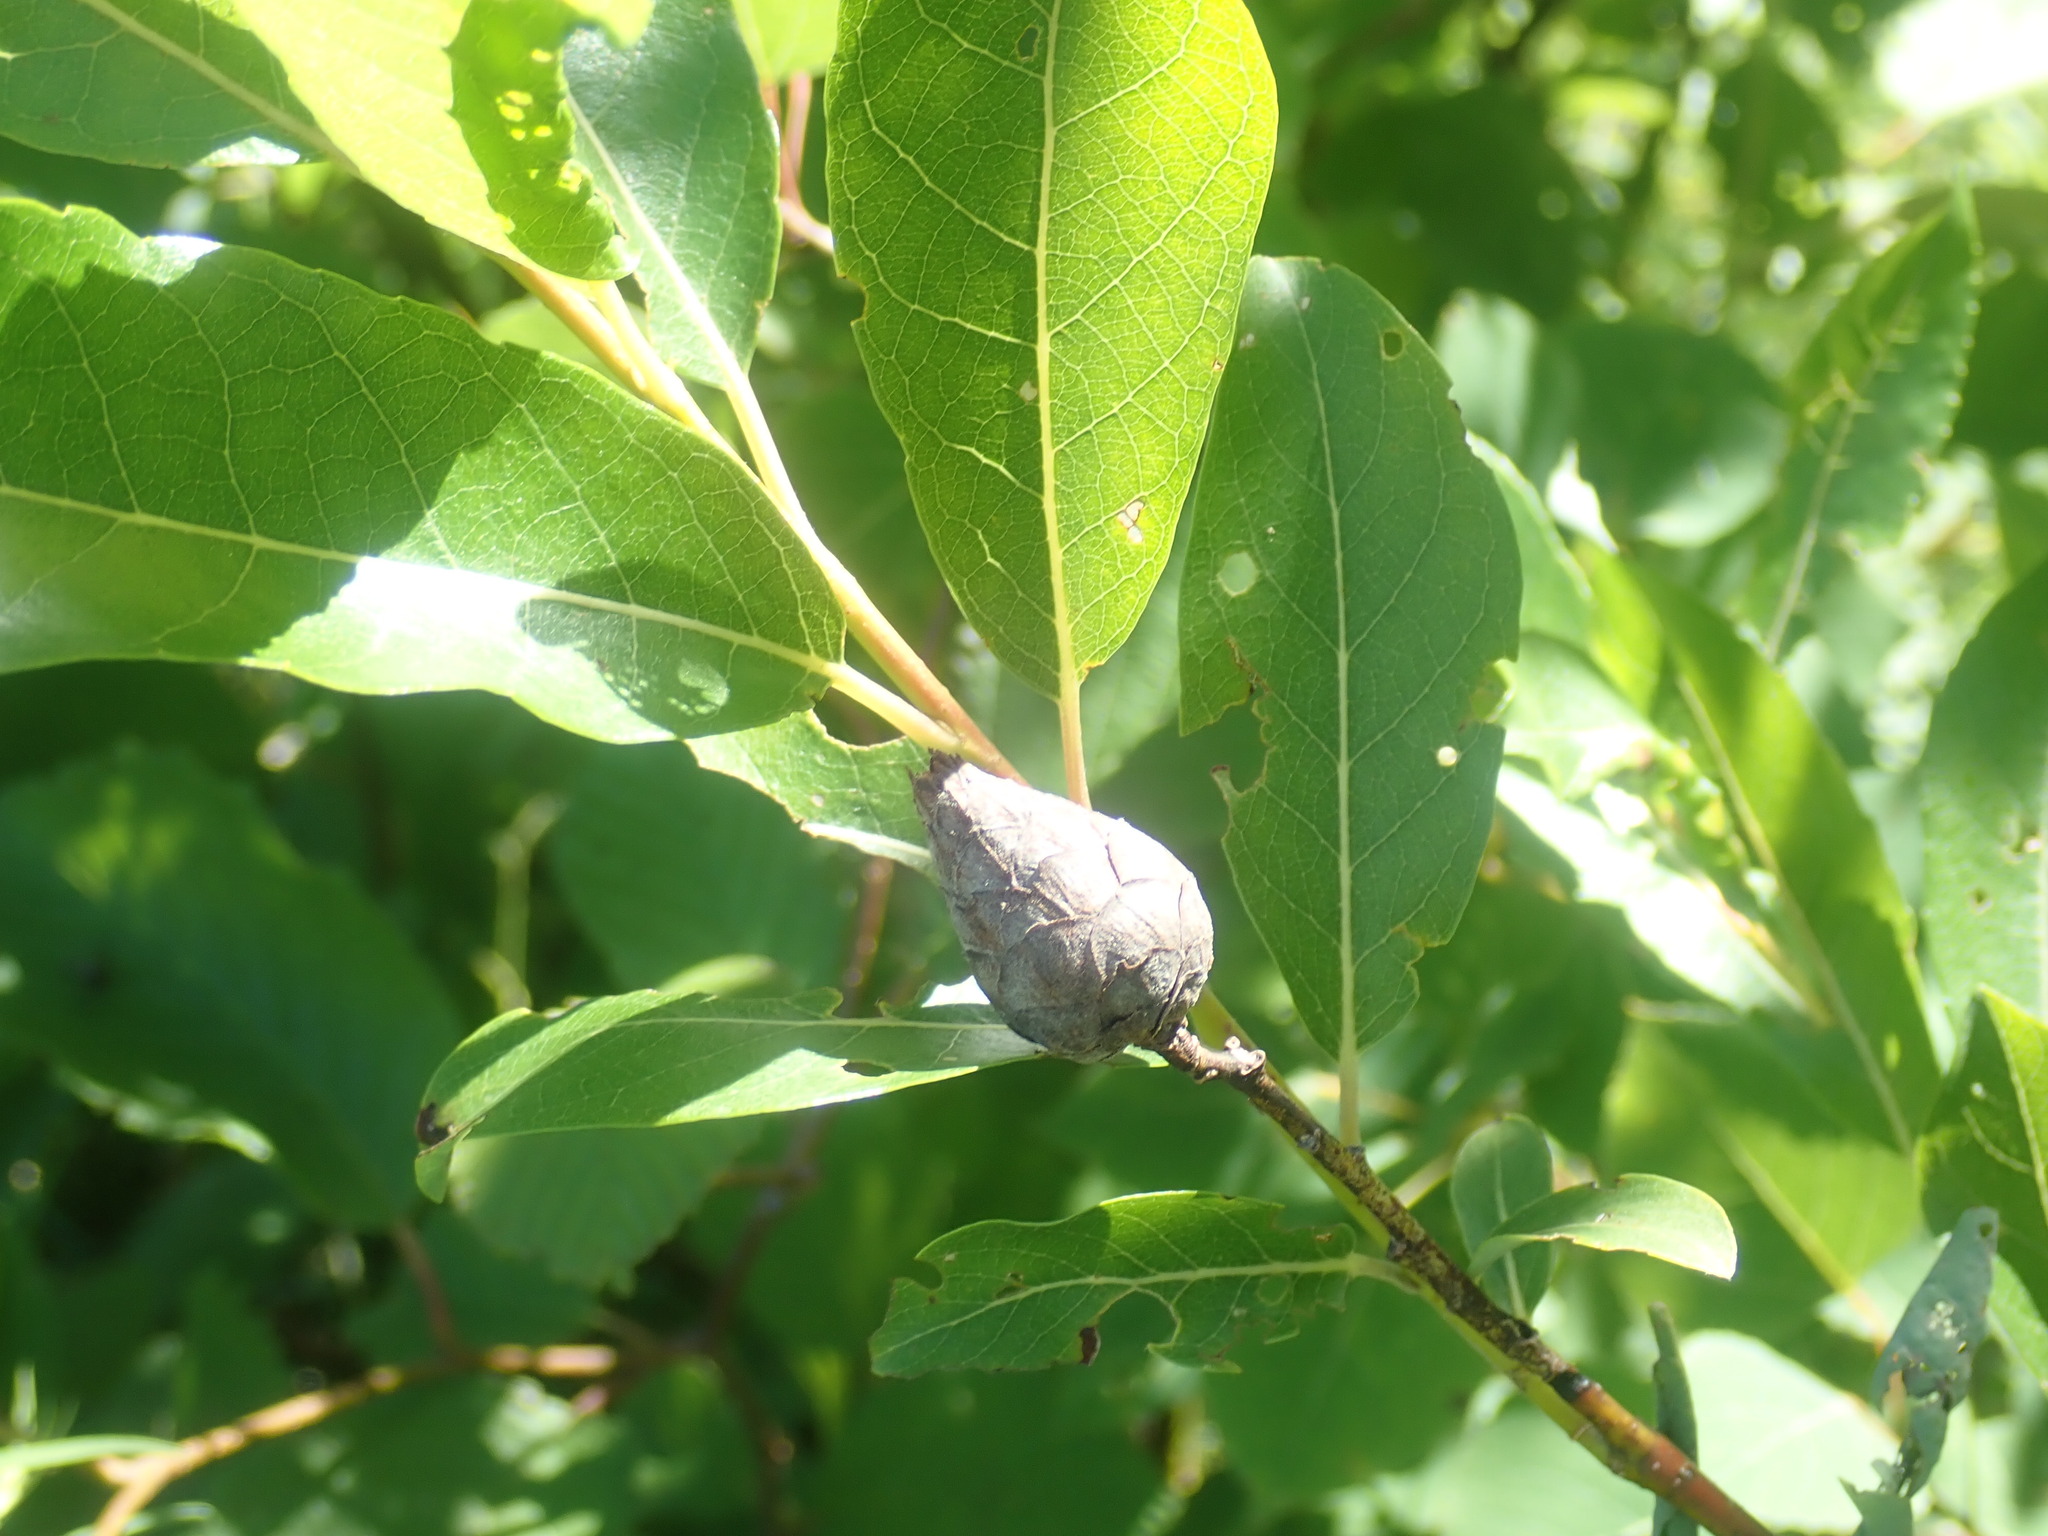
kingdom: Animalia
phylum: Arthropoda
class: Insecta
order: Diptera
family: Cecidomyiidae
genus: Rabdophaga
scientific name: Rabdophaga strobiloides
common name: Willow pinecone gall midge
